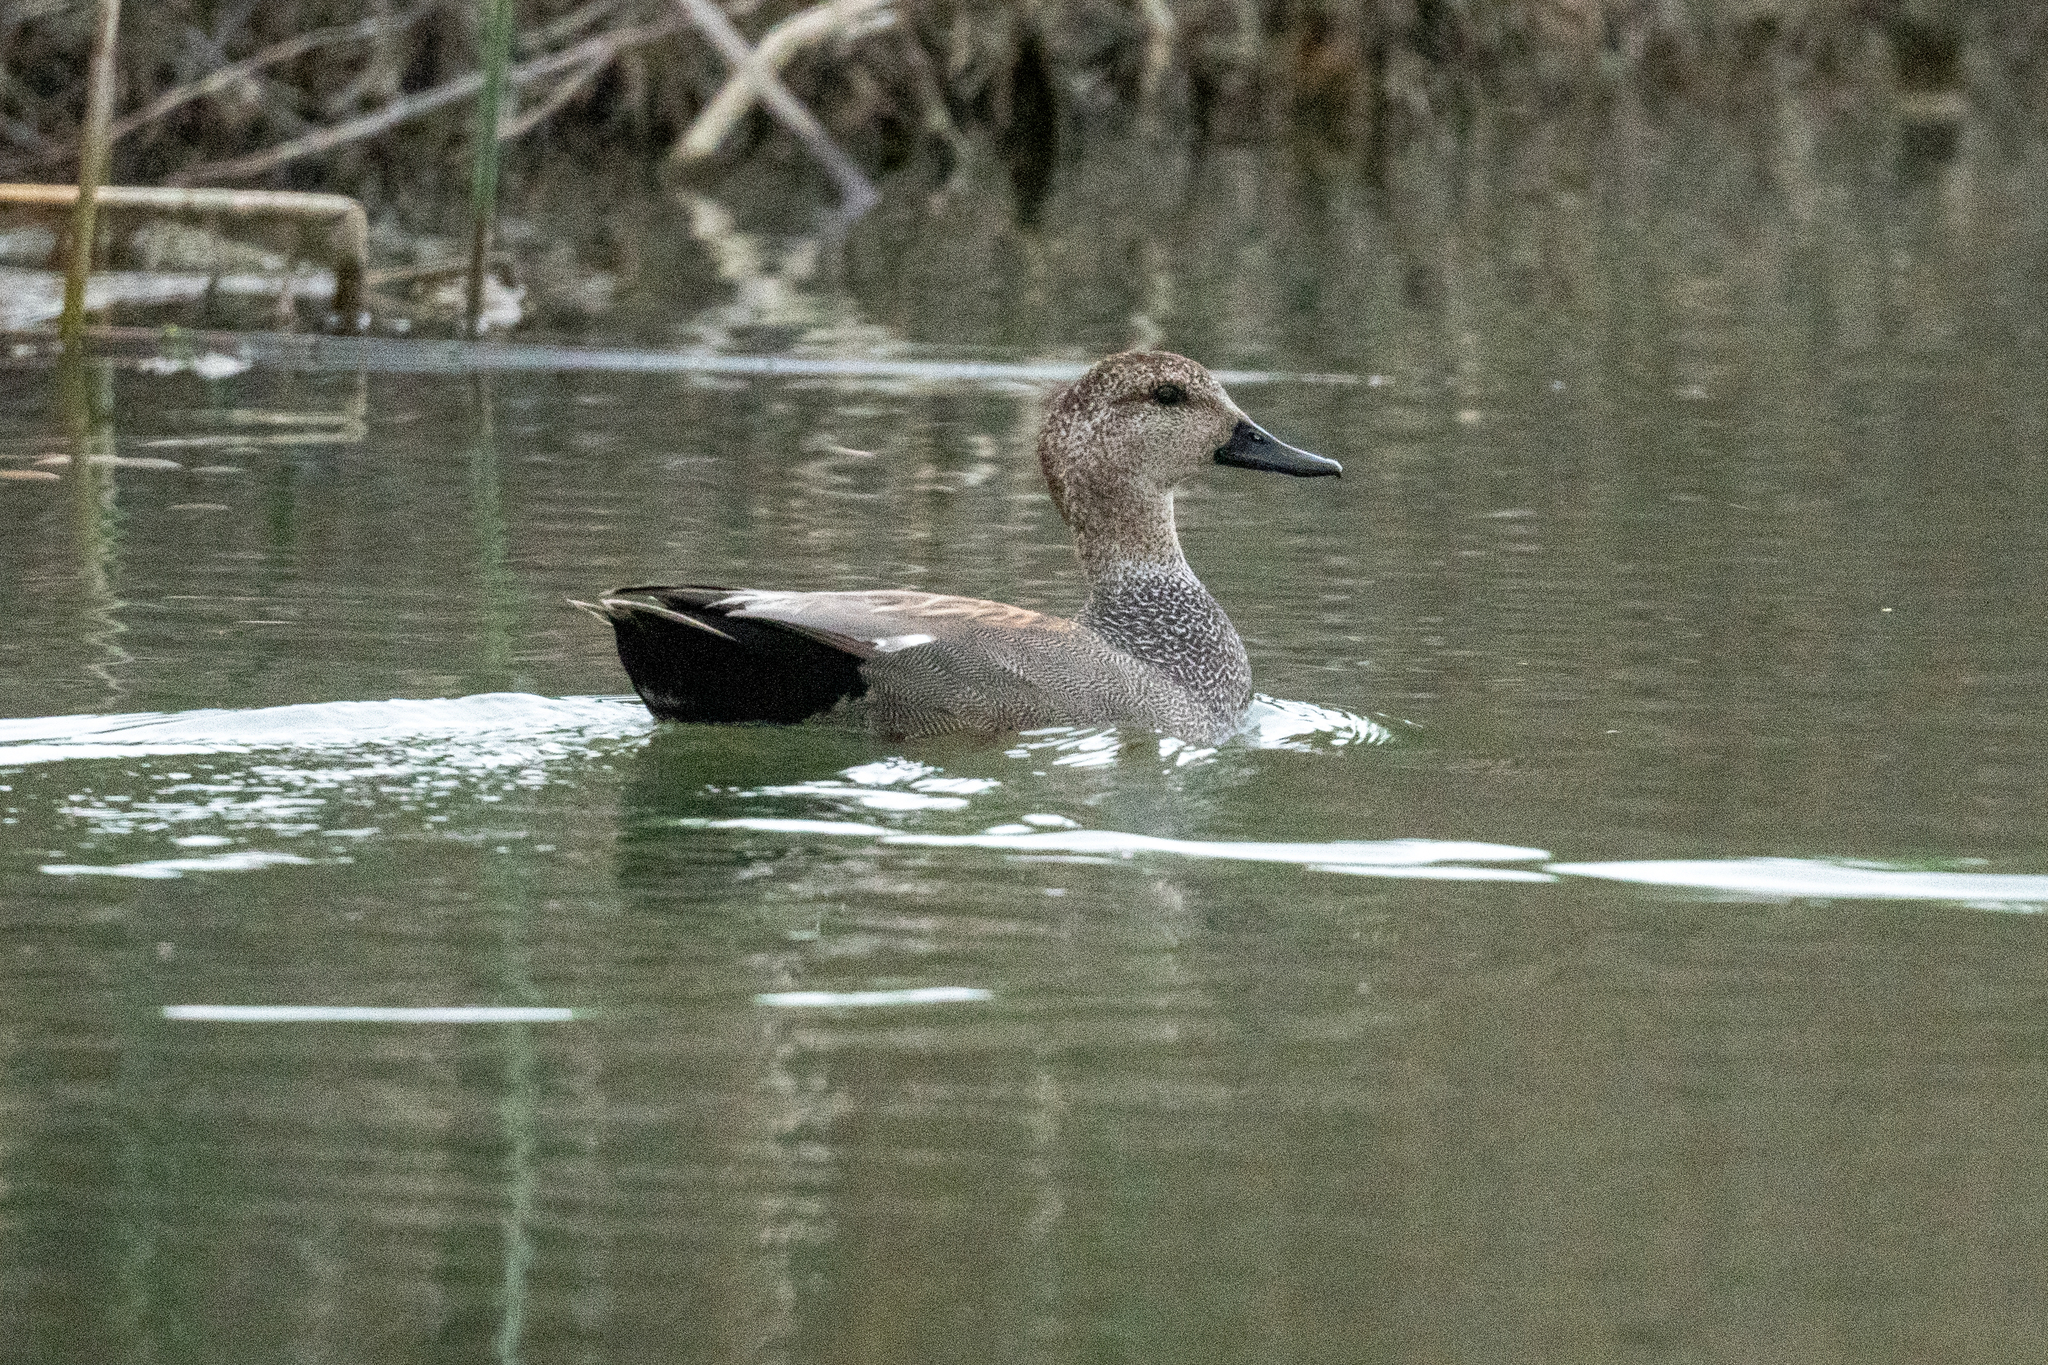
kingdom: Animalia
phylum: Chordata
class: Aves
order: Anseriformes
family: Anatidae
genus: Mareca
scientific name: Mareca strepera
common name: Gadwall
